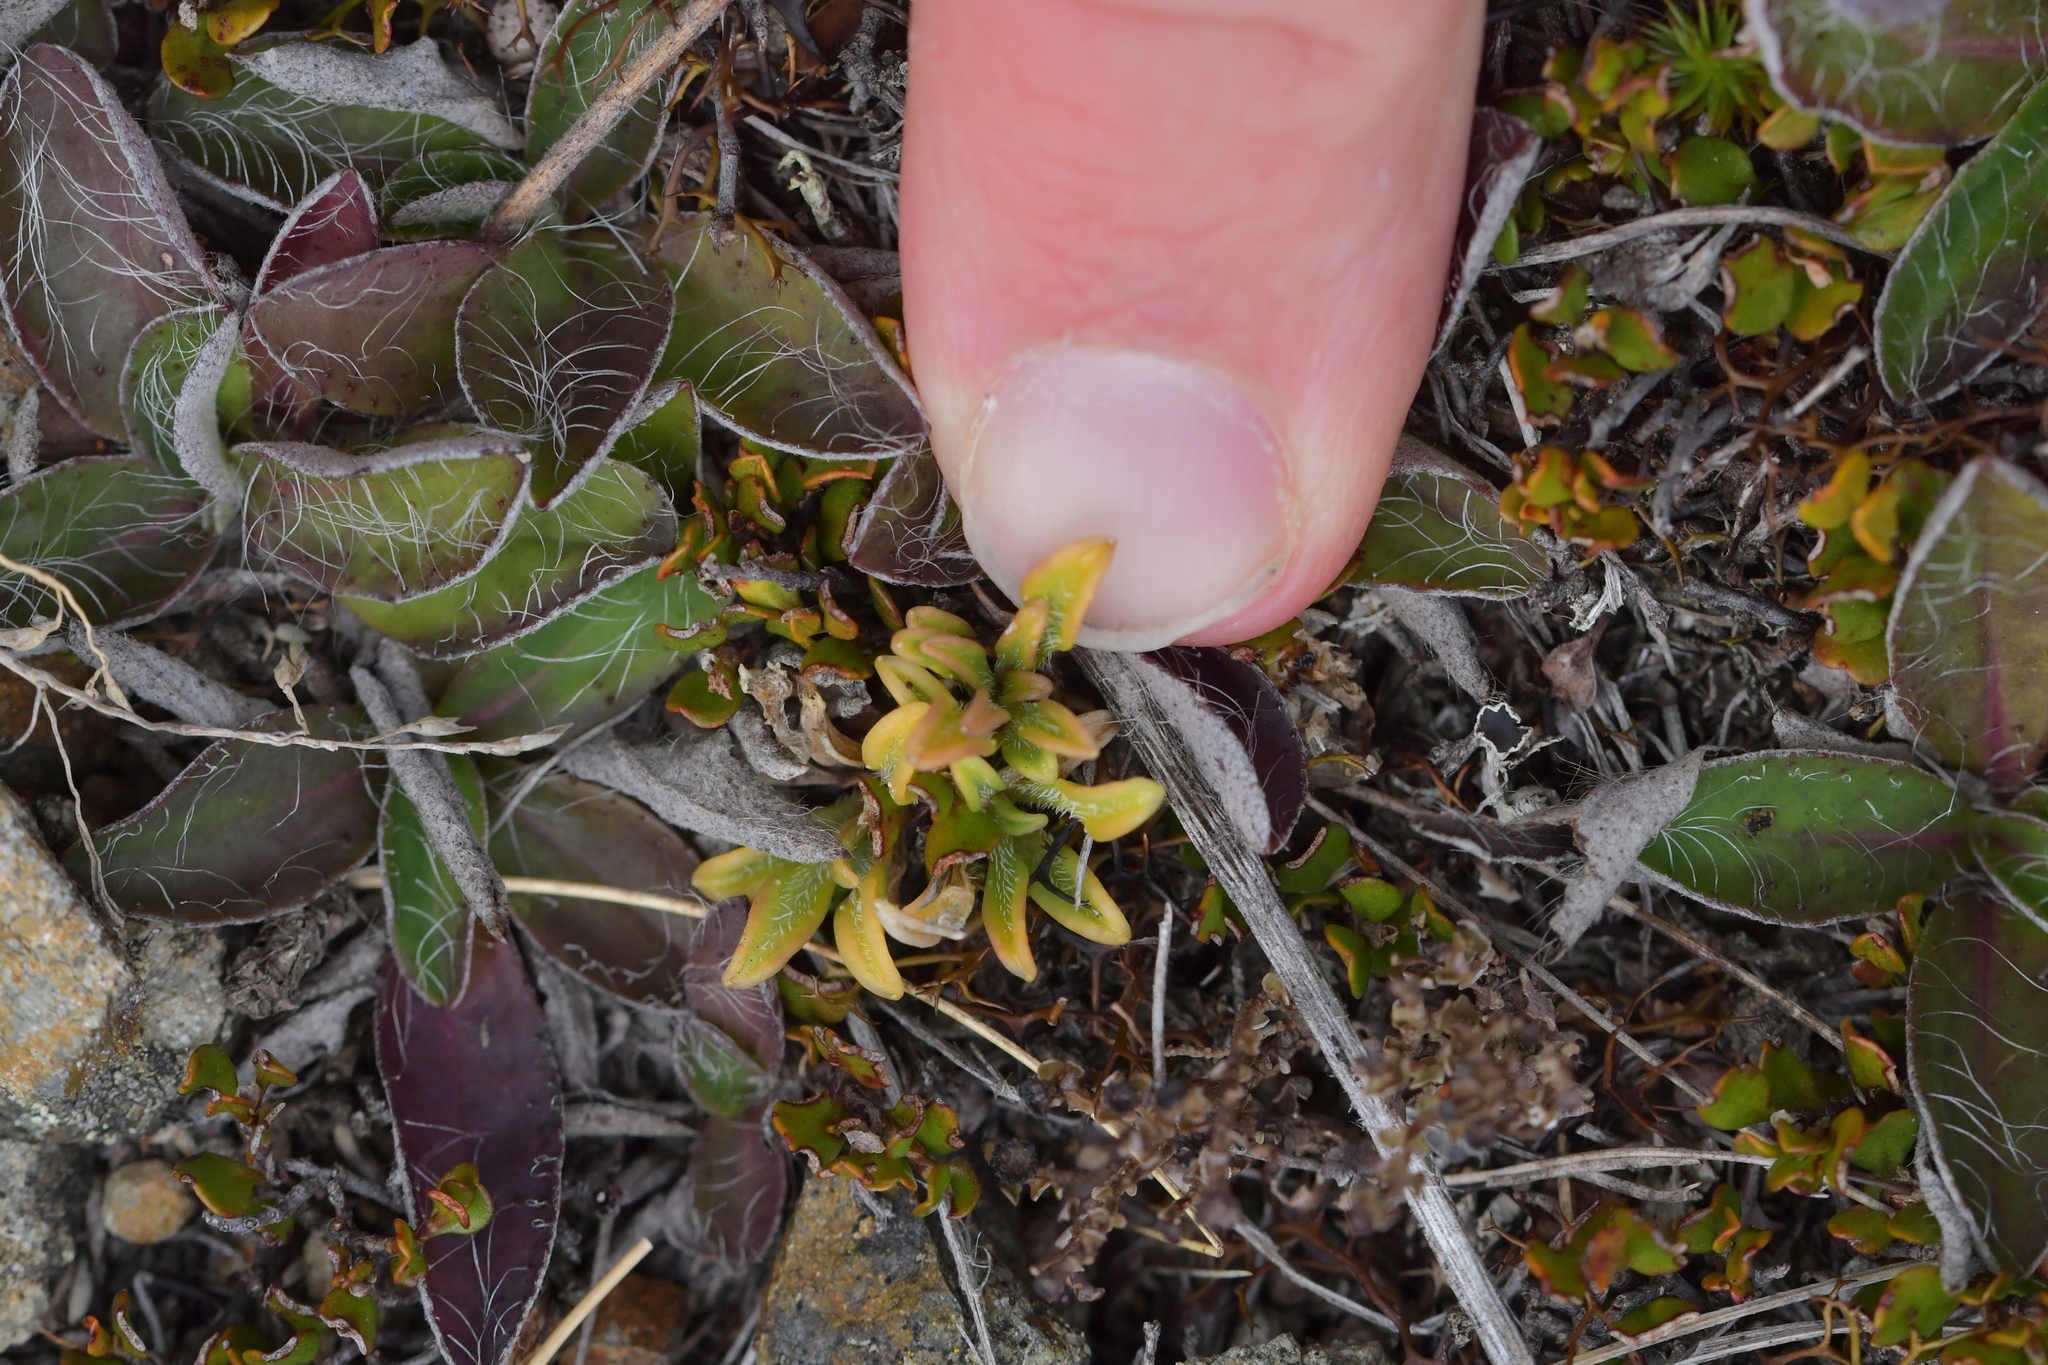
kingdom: Plantae
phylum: Tracheophyta
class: Magnoliopsida
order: Gentianales
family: Rubiaceae
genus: Coprosma
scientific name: Coprosma petriei
